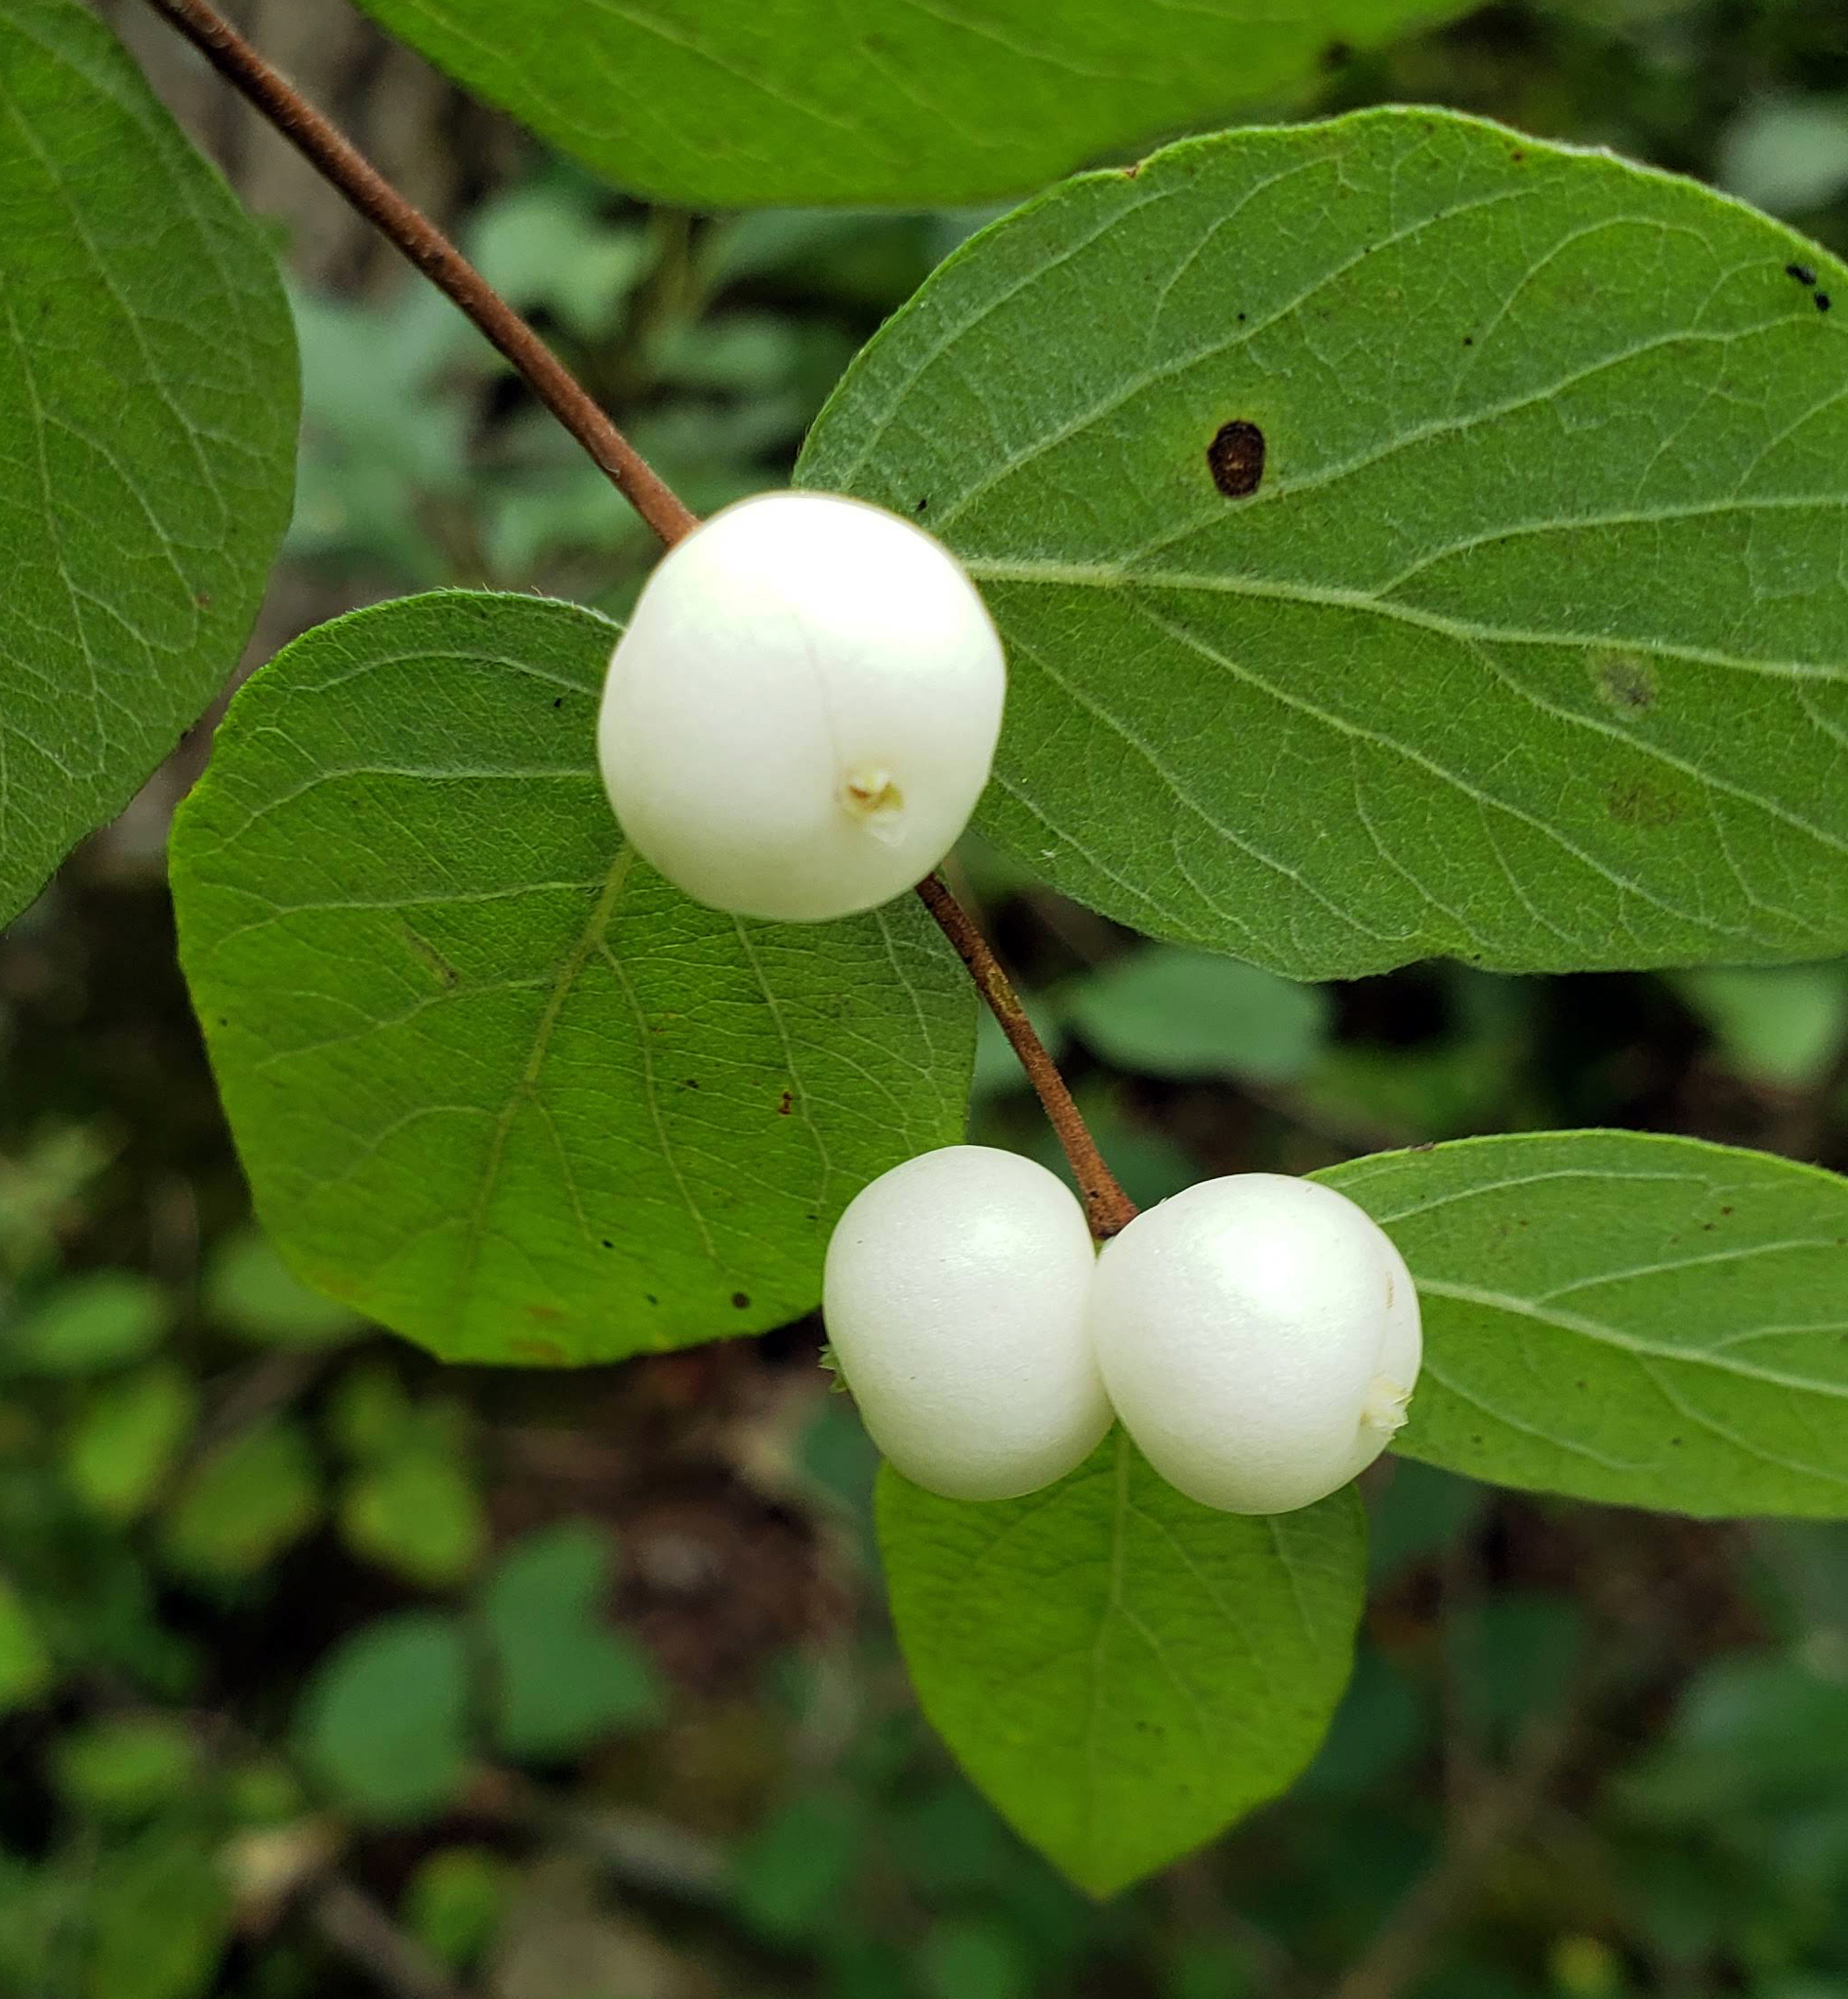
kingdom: Plantae
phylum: Tracheophyta
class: Magnoliopsida
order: Dipsacales
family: Caprifoliaceae
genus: Symphoricarpos
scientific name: Symphoricarpos albus
